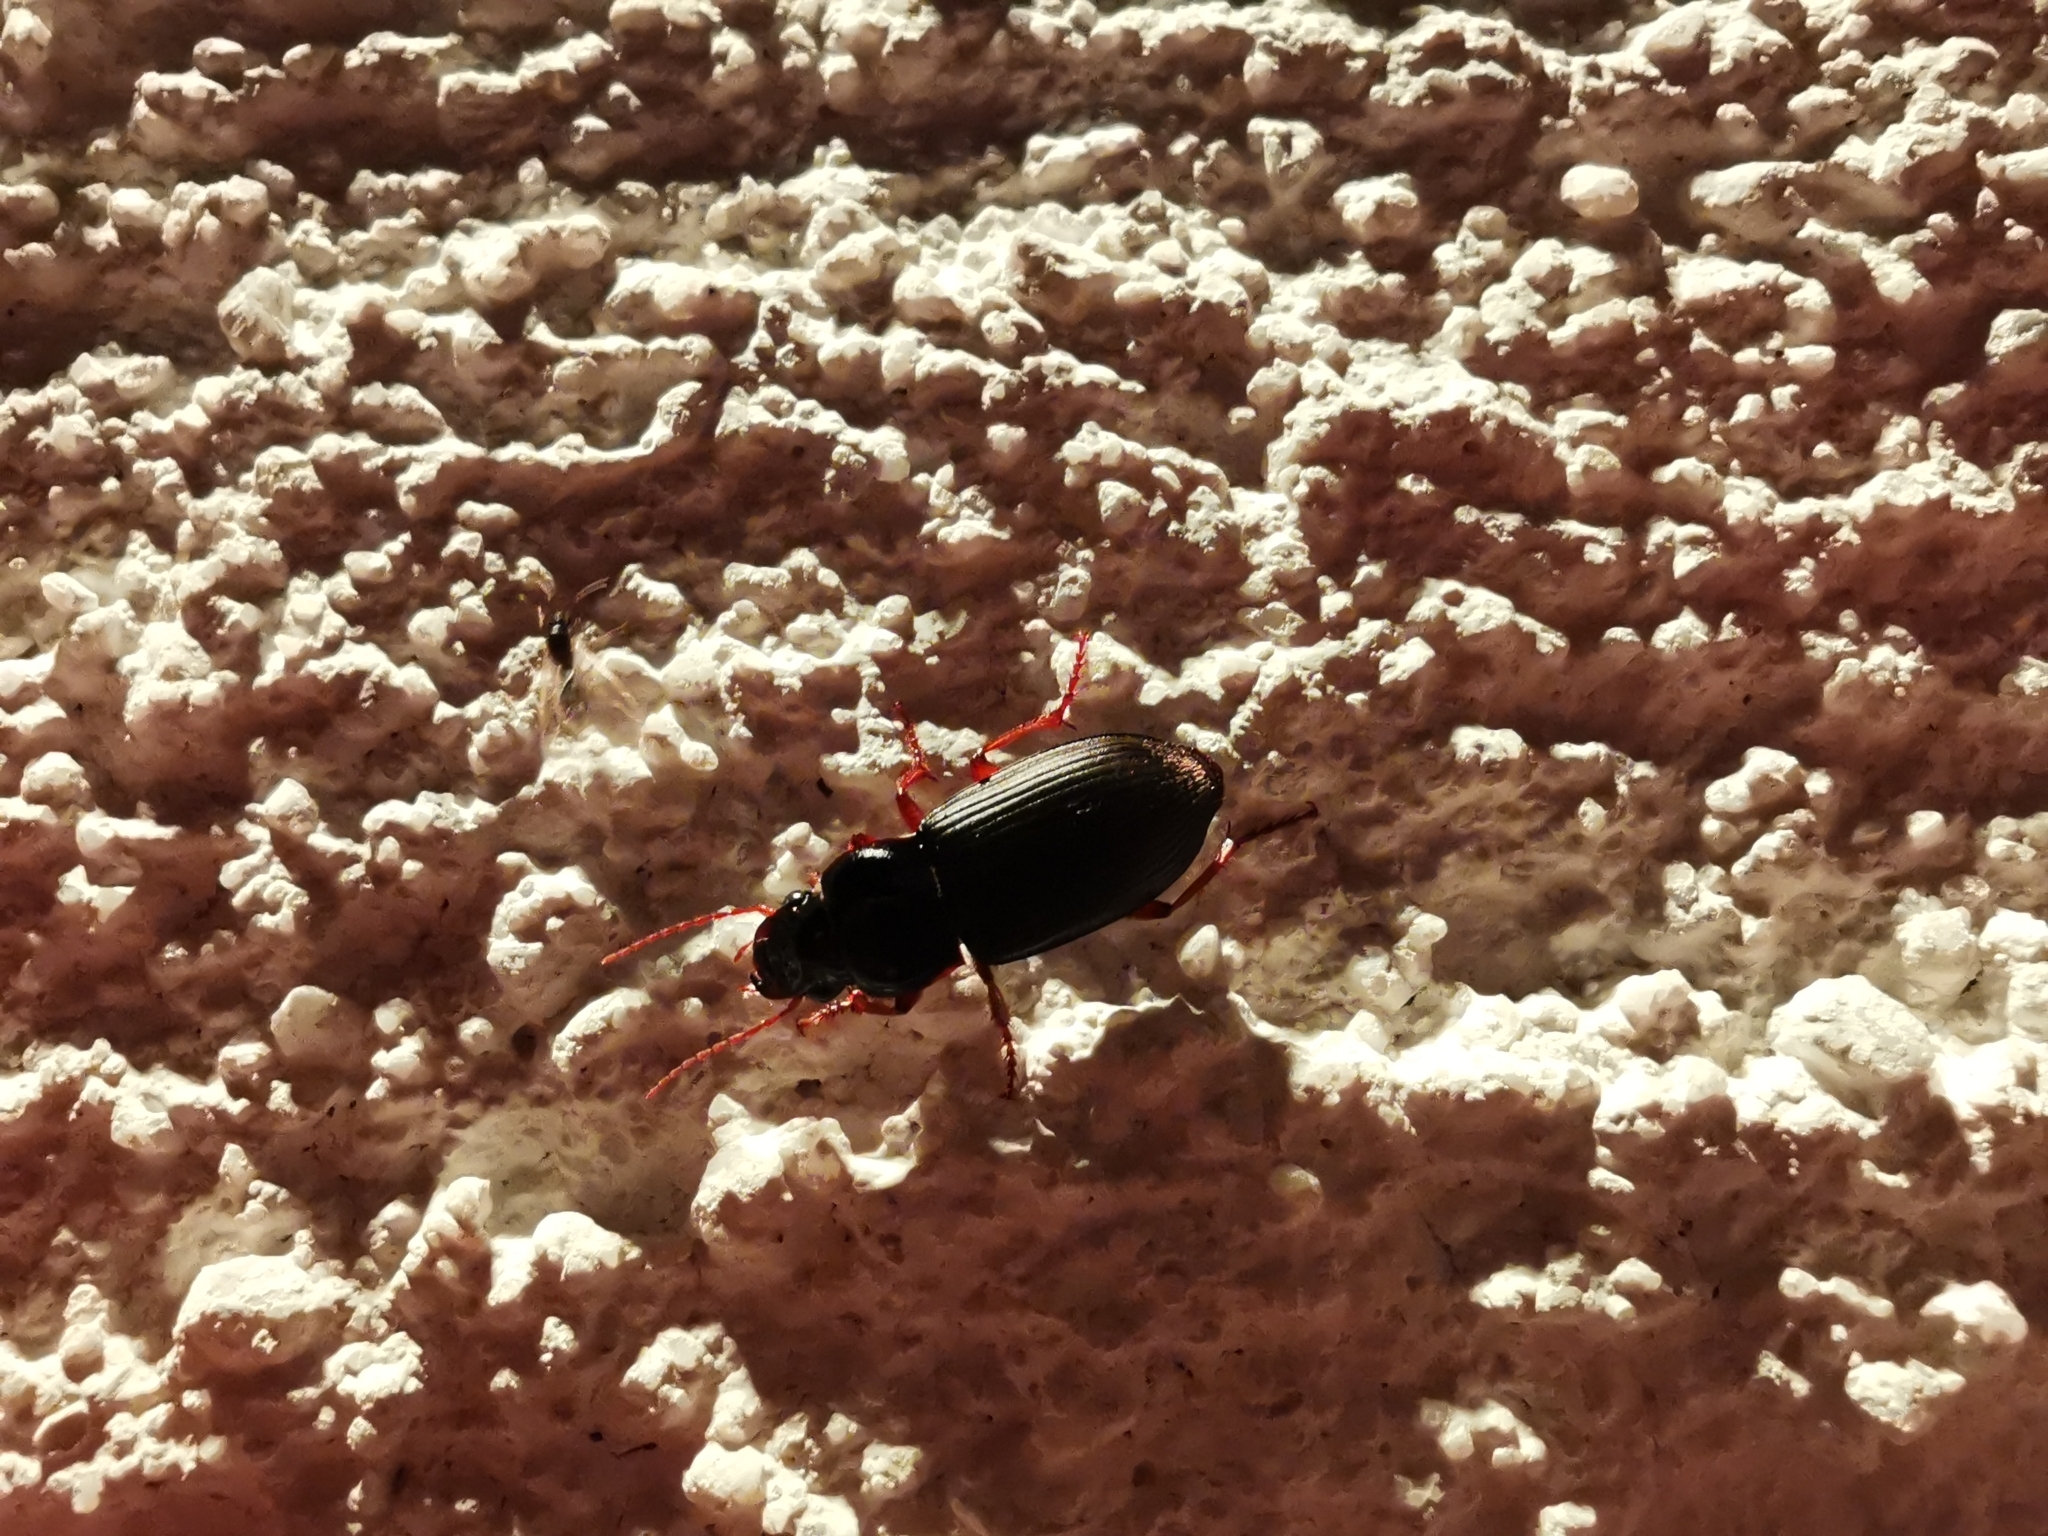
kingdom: Animalia
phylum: Arthropoda
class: Insecta
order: Coleoptera
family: Carabidae
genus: Harpalus
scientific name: Harpalus rufipes
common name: Strawberry harp ground beetle
